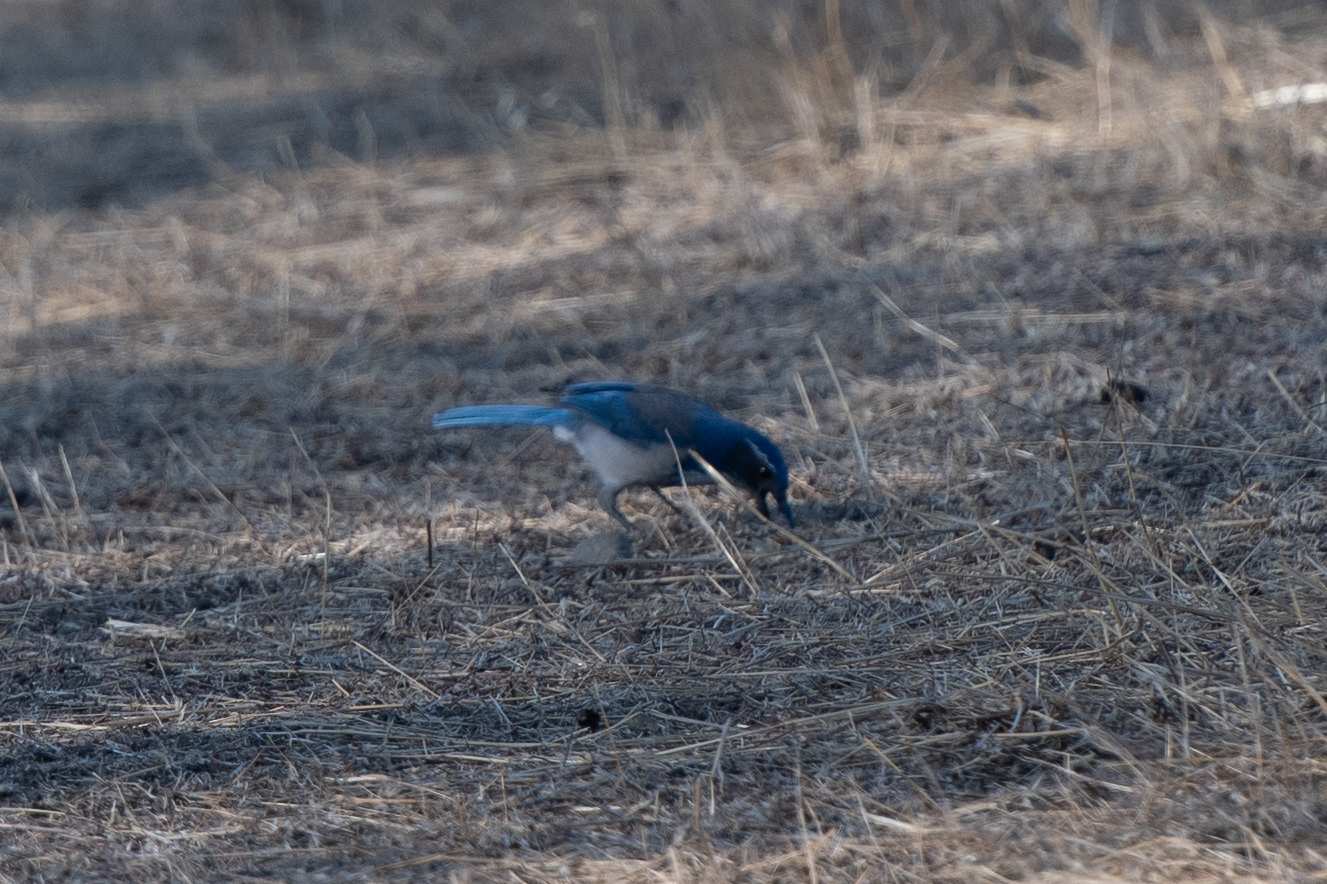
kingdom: Animalia
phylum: Chordata
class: Aves
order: Passeriformes
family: Corvidae
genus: Aphelocoma
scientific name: Aphelocoma californica
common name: California scrub-jay
